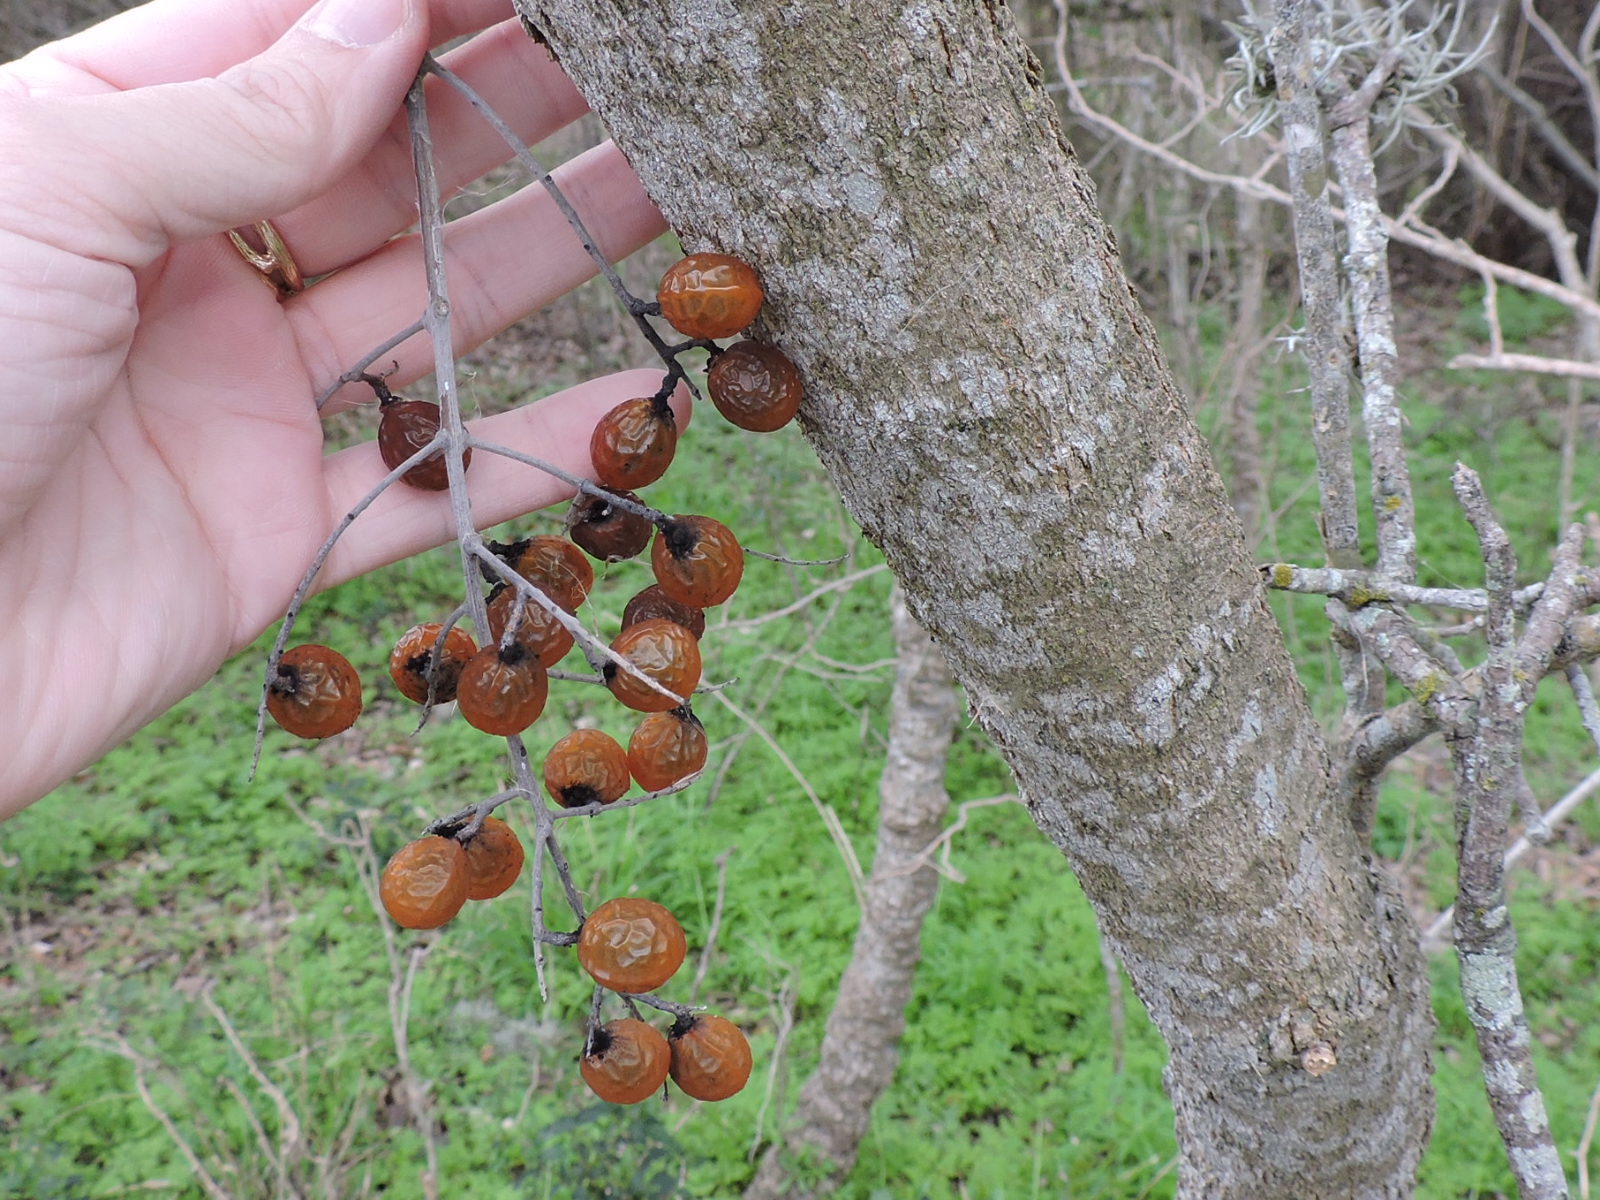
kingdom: Plantae
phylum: Tracheophyta
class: Magnoliopsida
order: Sapindales
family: Sapindaceae
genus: Sapindus
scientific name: Sapindus drummondii
